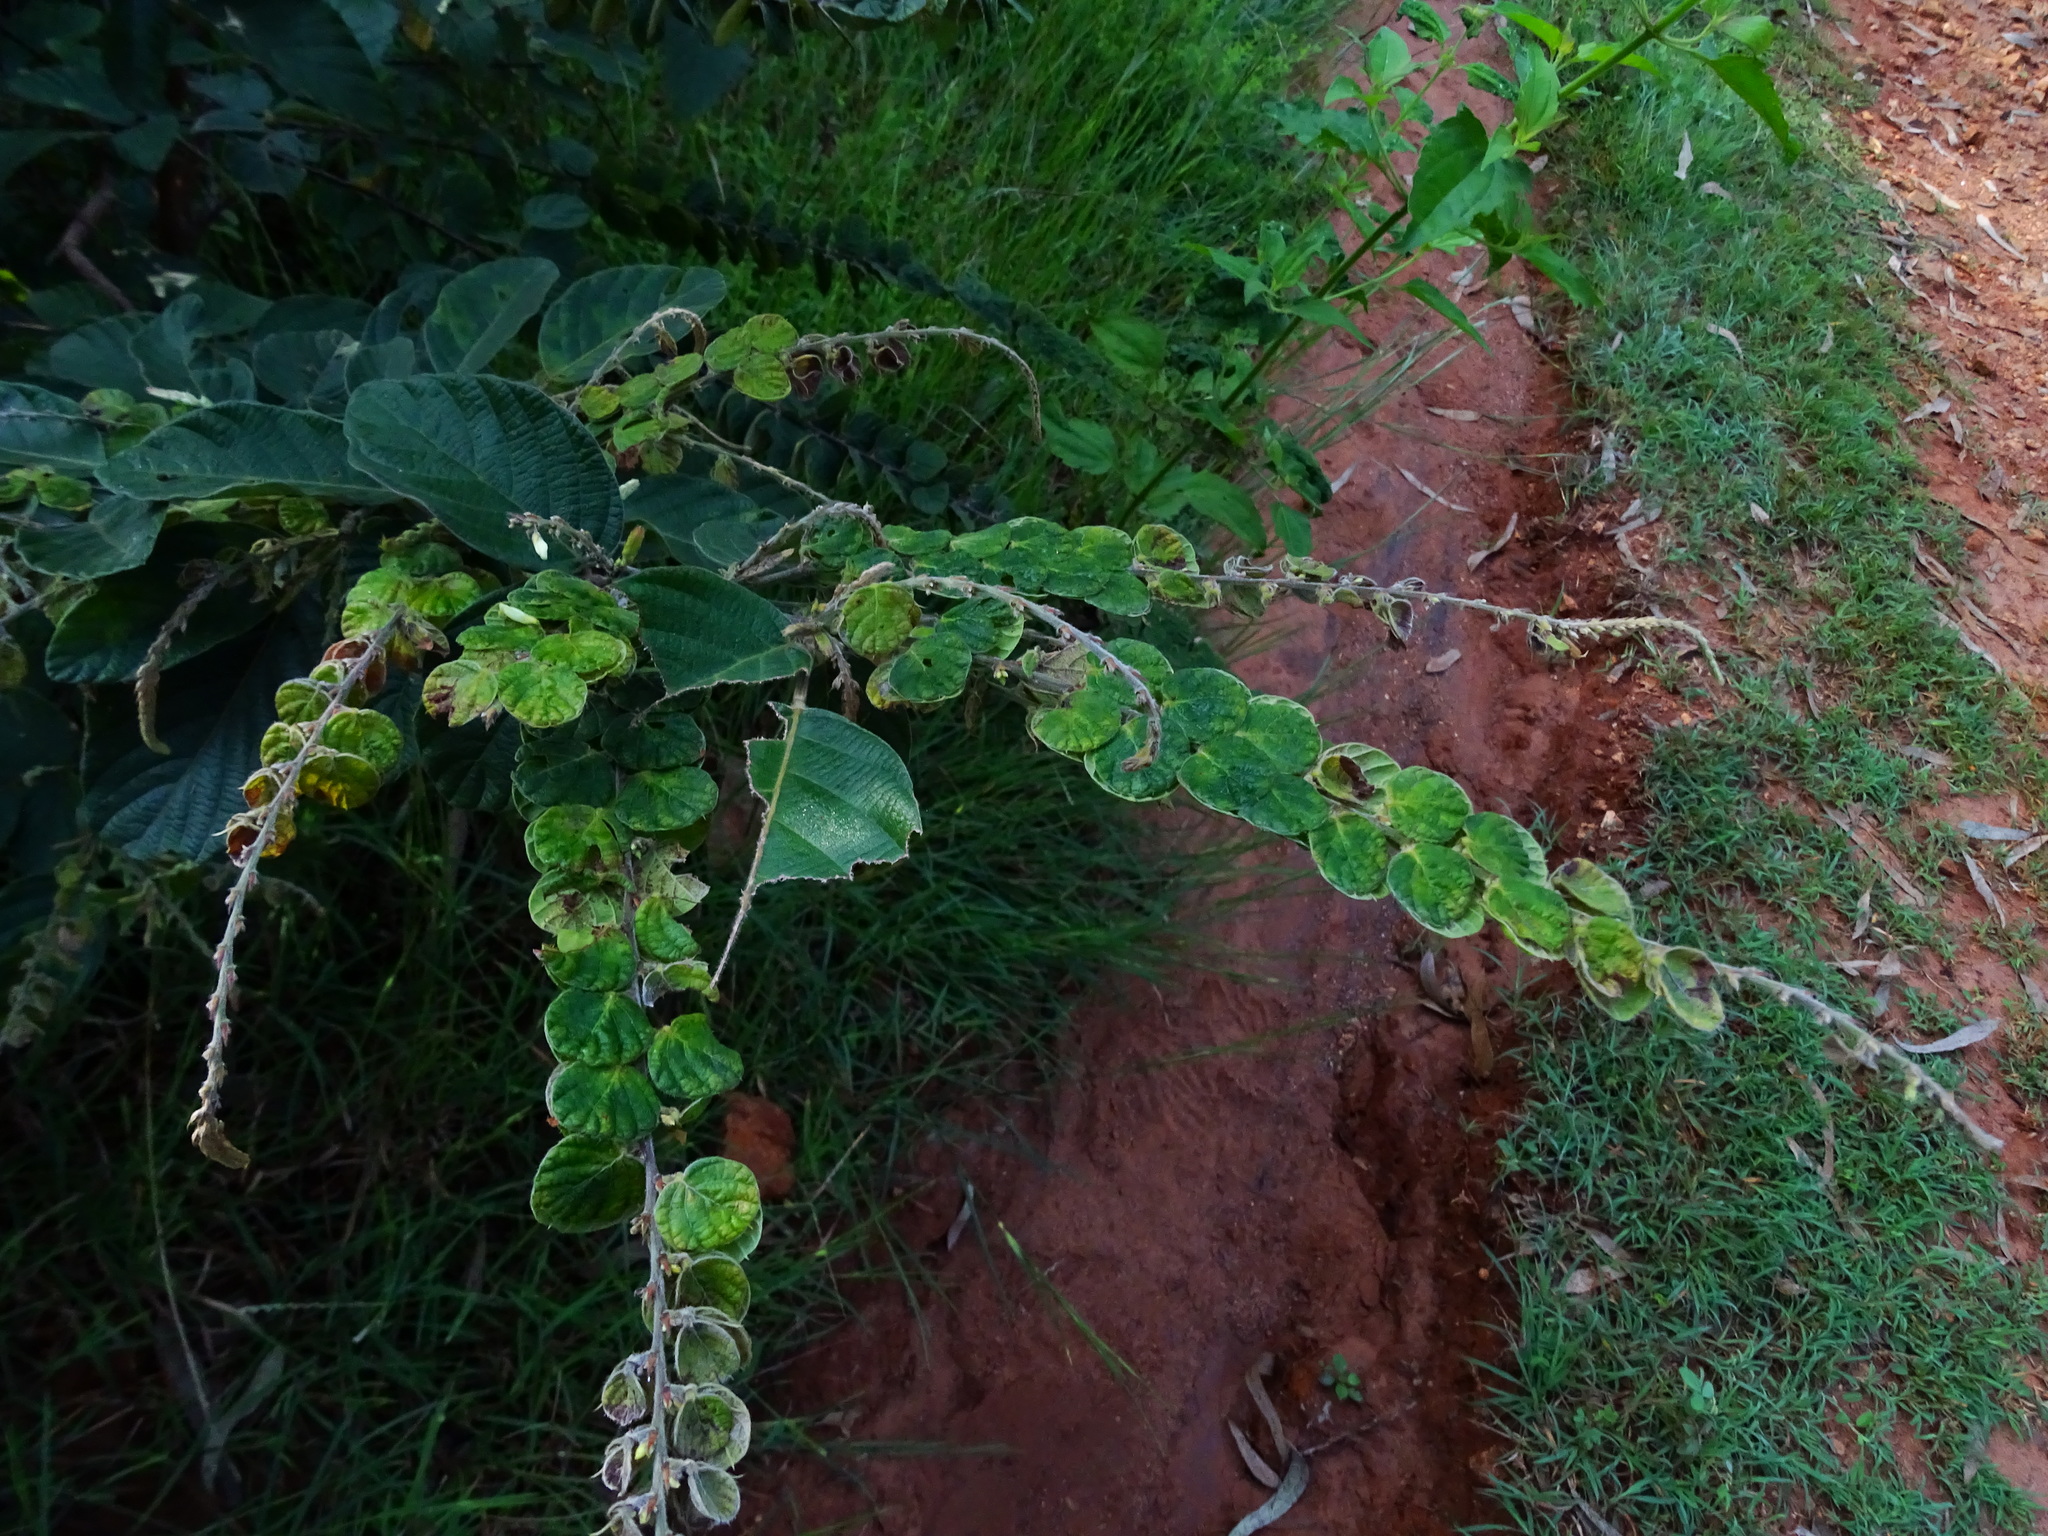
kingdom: Plantae
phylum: Tracheophyta
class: Magnoliopsida
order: Fabales
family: Fabaceae
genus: Phyllodium
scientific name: Phyllodium pulchellum
